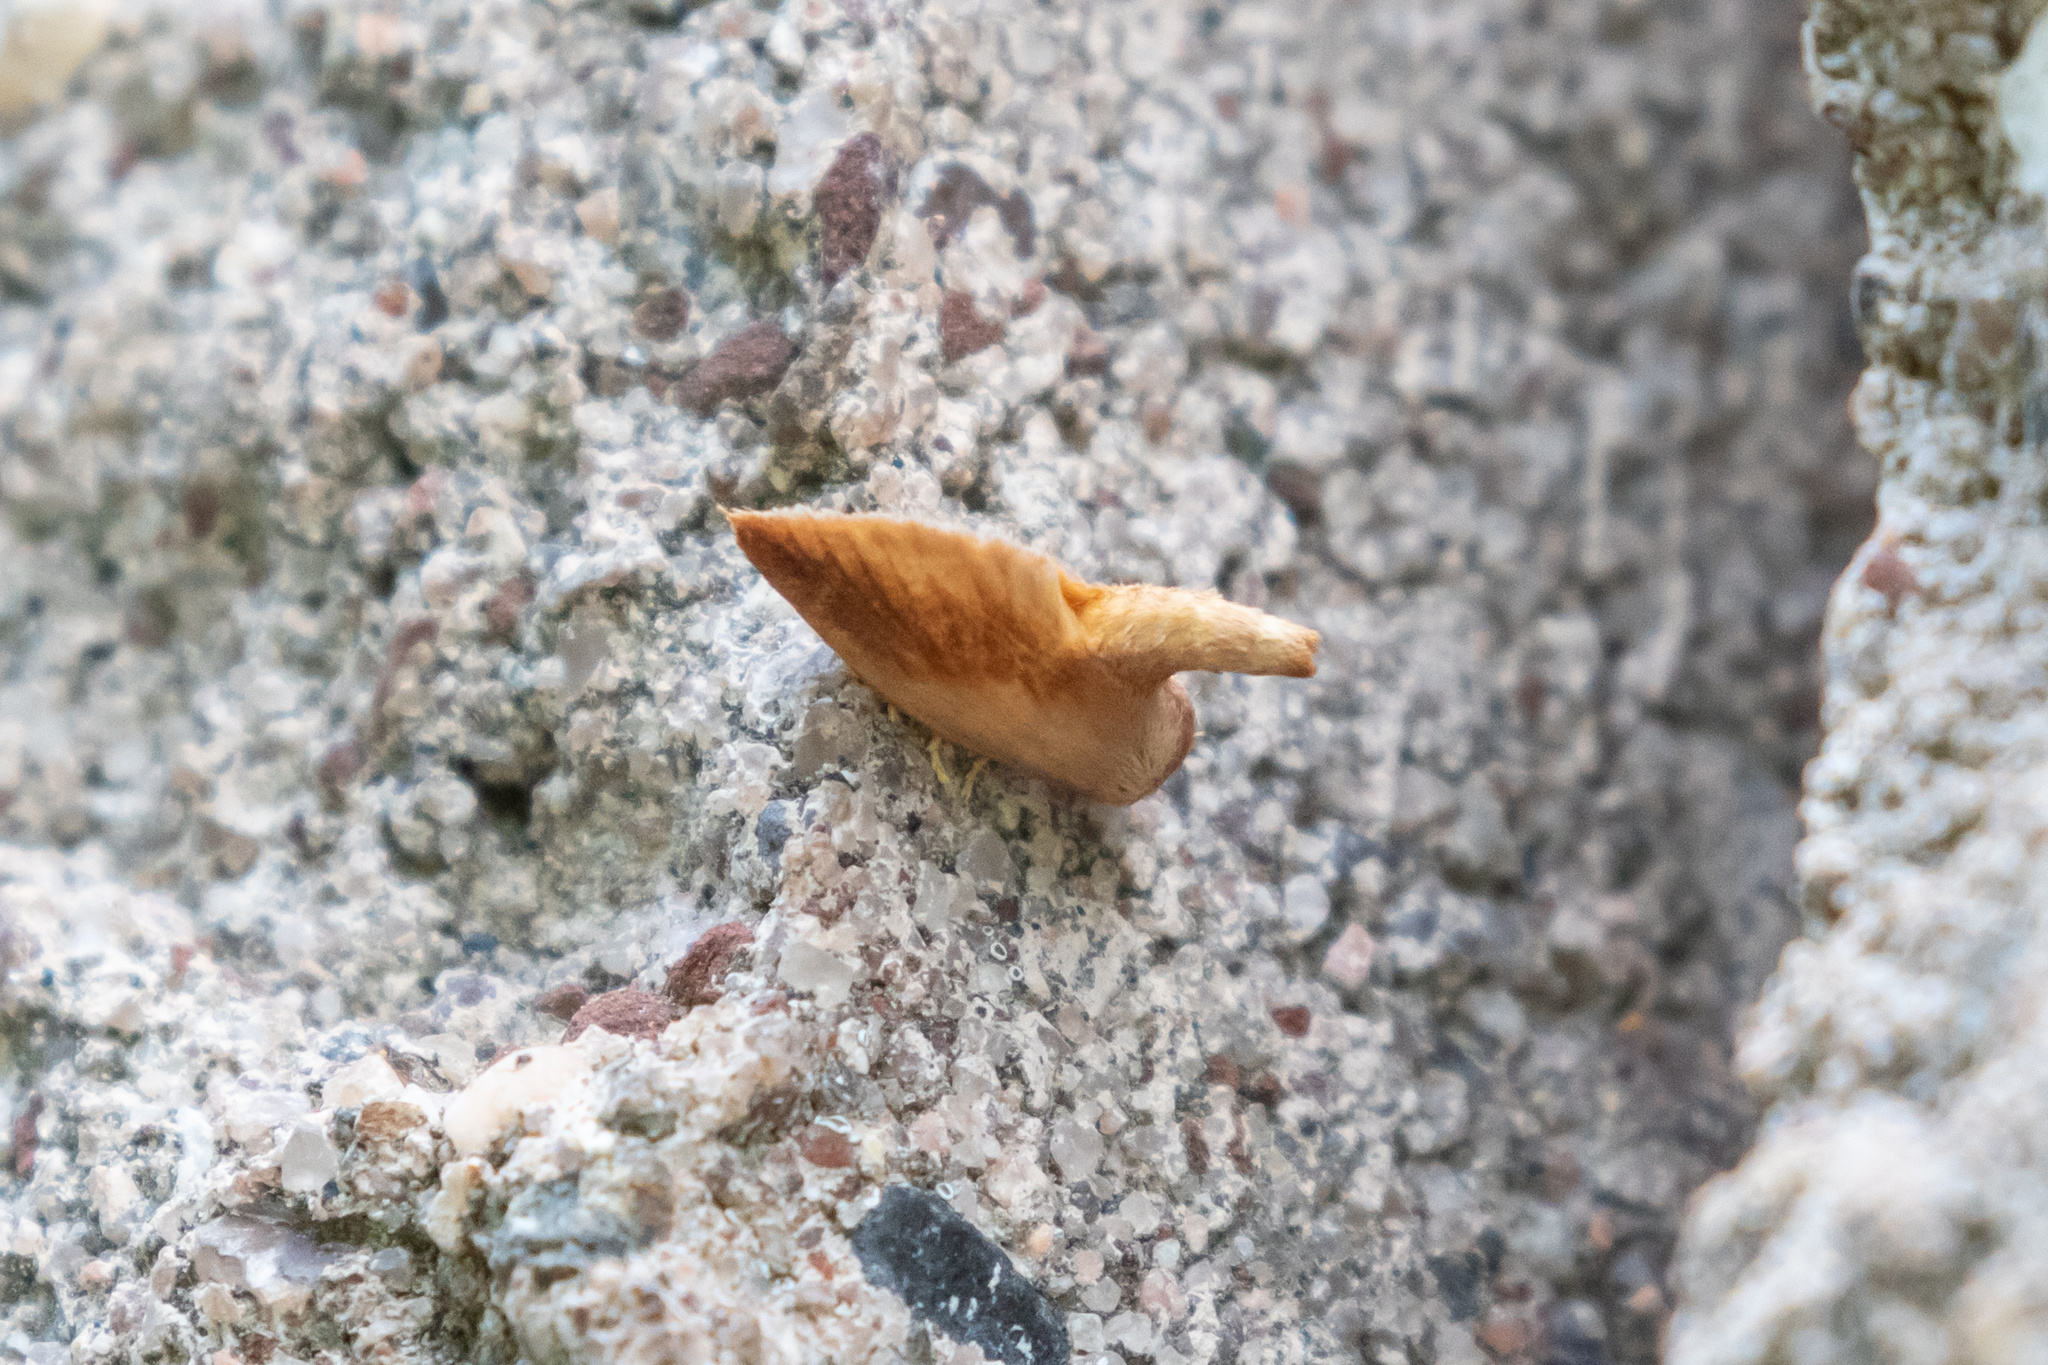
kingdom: Animalia
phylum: Arthropoda
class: Insecta
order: Lepidoptera
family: Limacodidae
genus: Tortricidia
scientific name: Tortricidia testacea
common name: Early button slug moth
